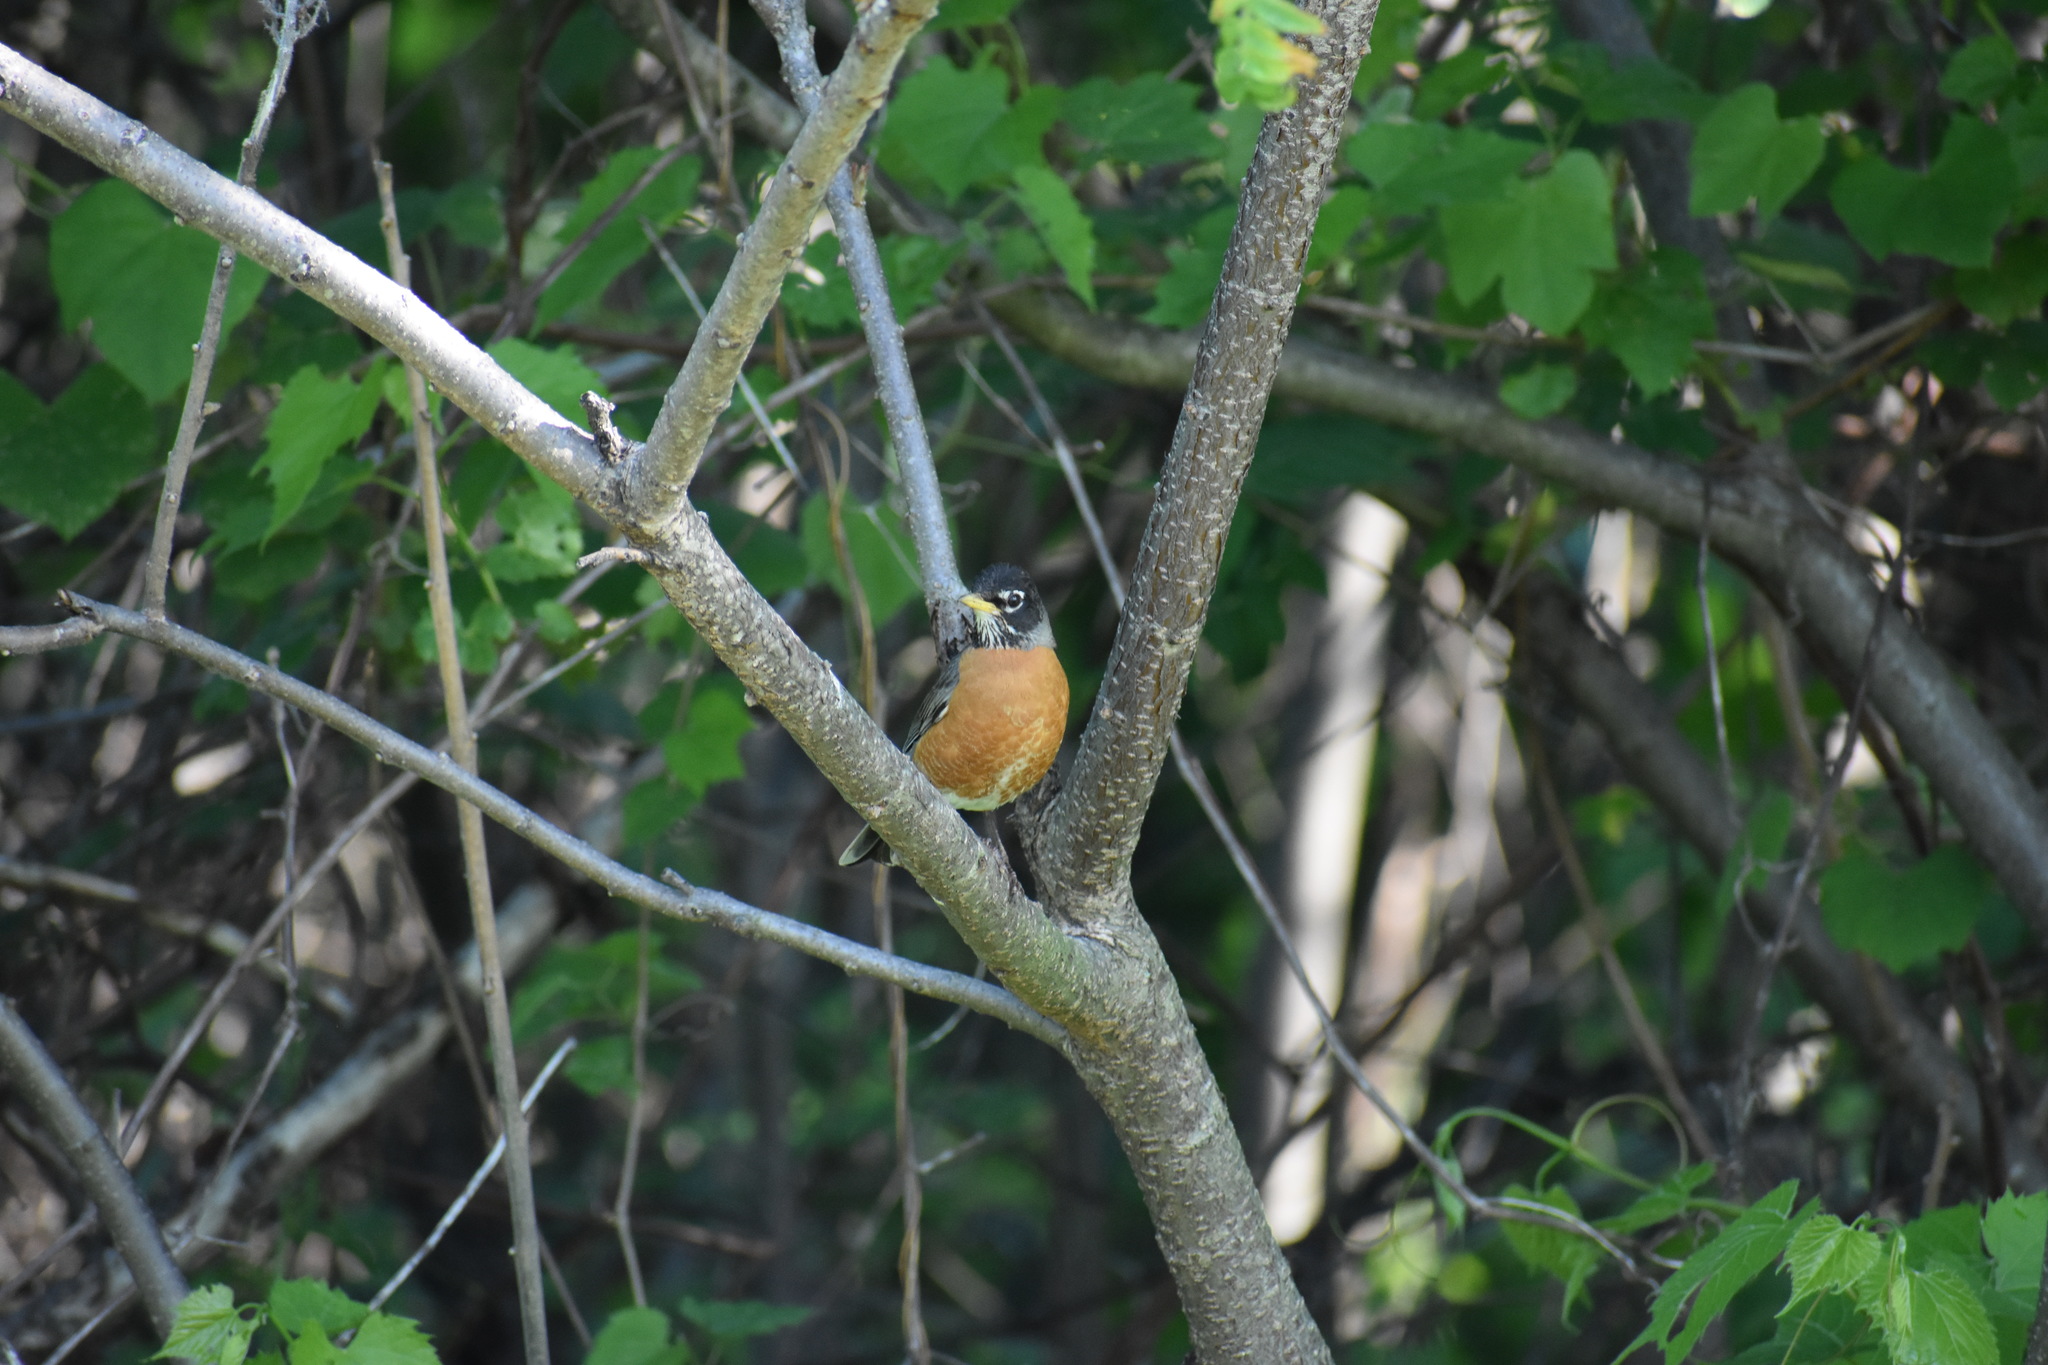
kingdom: Animalia
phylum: Chordata
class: Aves
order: Passeriformes
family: Turdidae
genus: Turdus
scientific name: Turdus migratorius
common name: American robin
